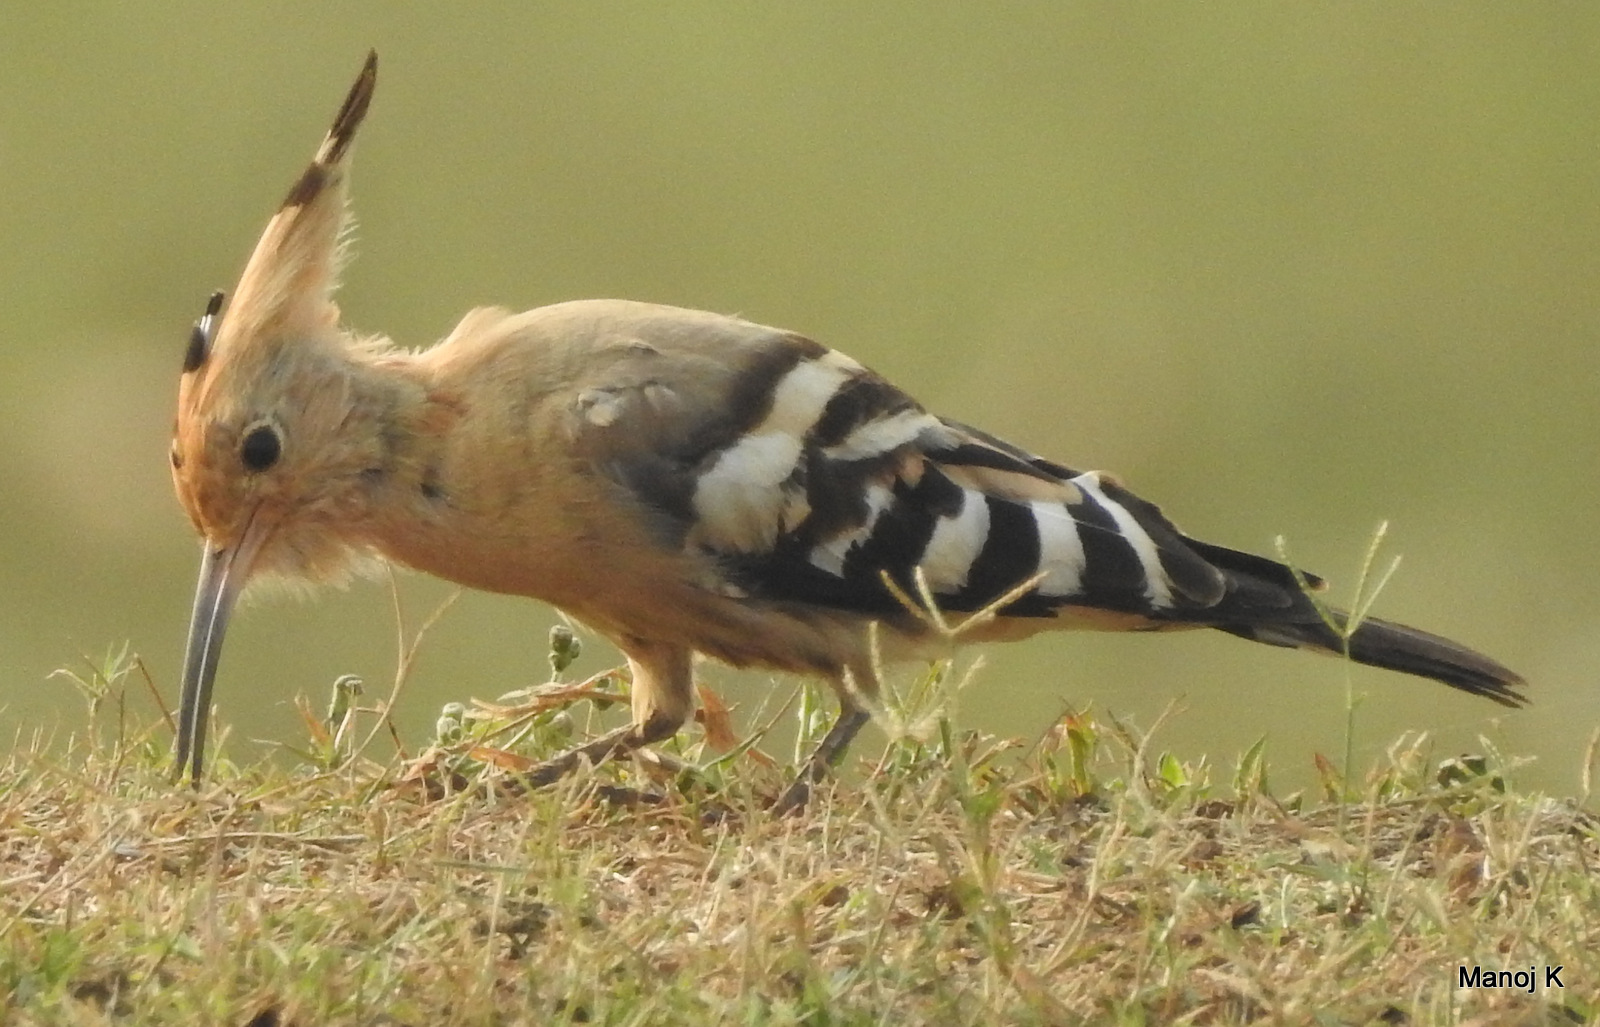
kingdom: Animalia
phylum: Chordata
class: Aves
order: Bucerotiformes
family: Upupidae
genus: Upupa
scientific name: Upupa epops
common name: Eurasian hoopoe
